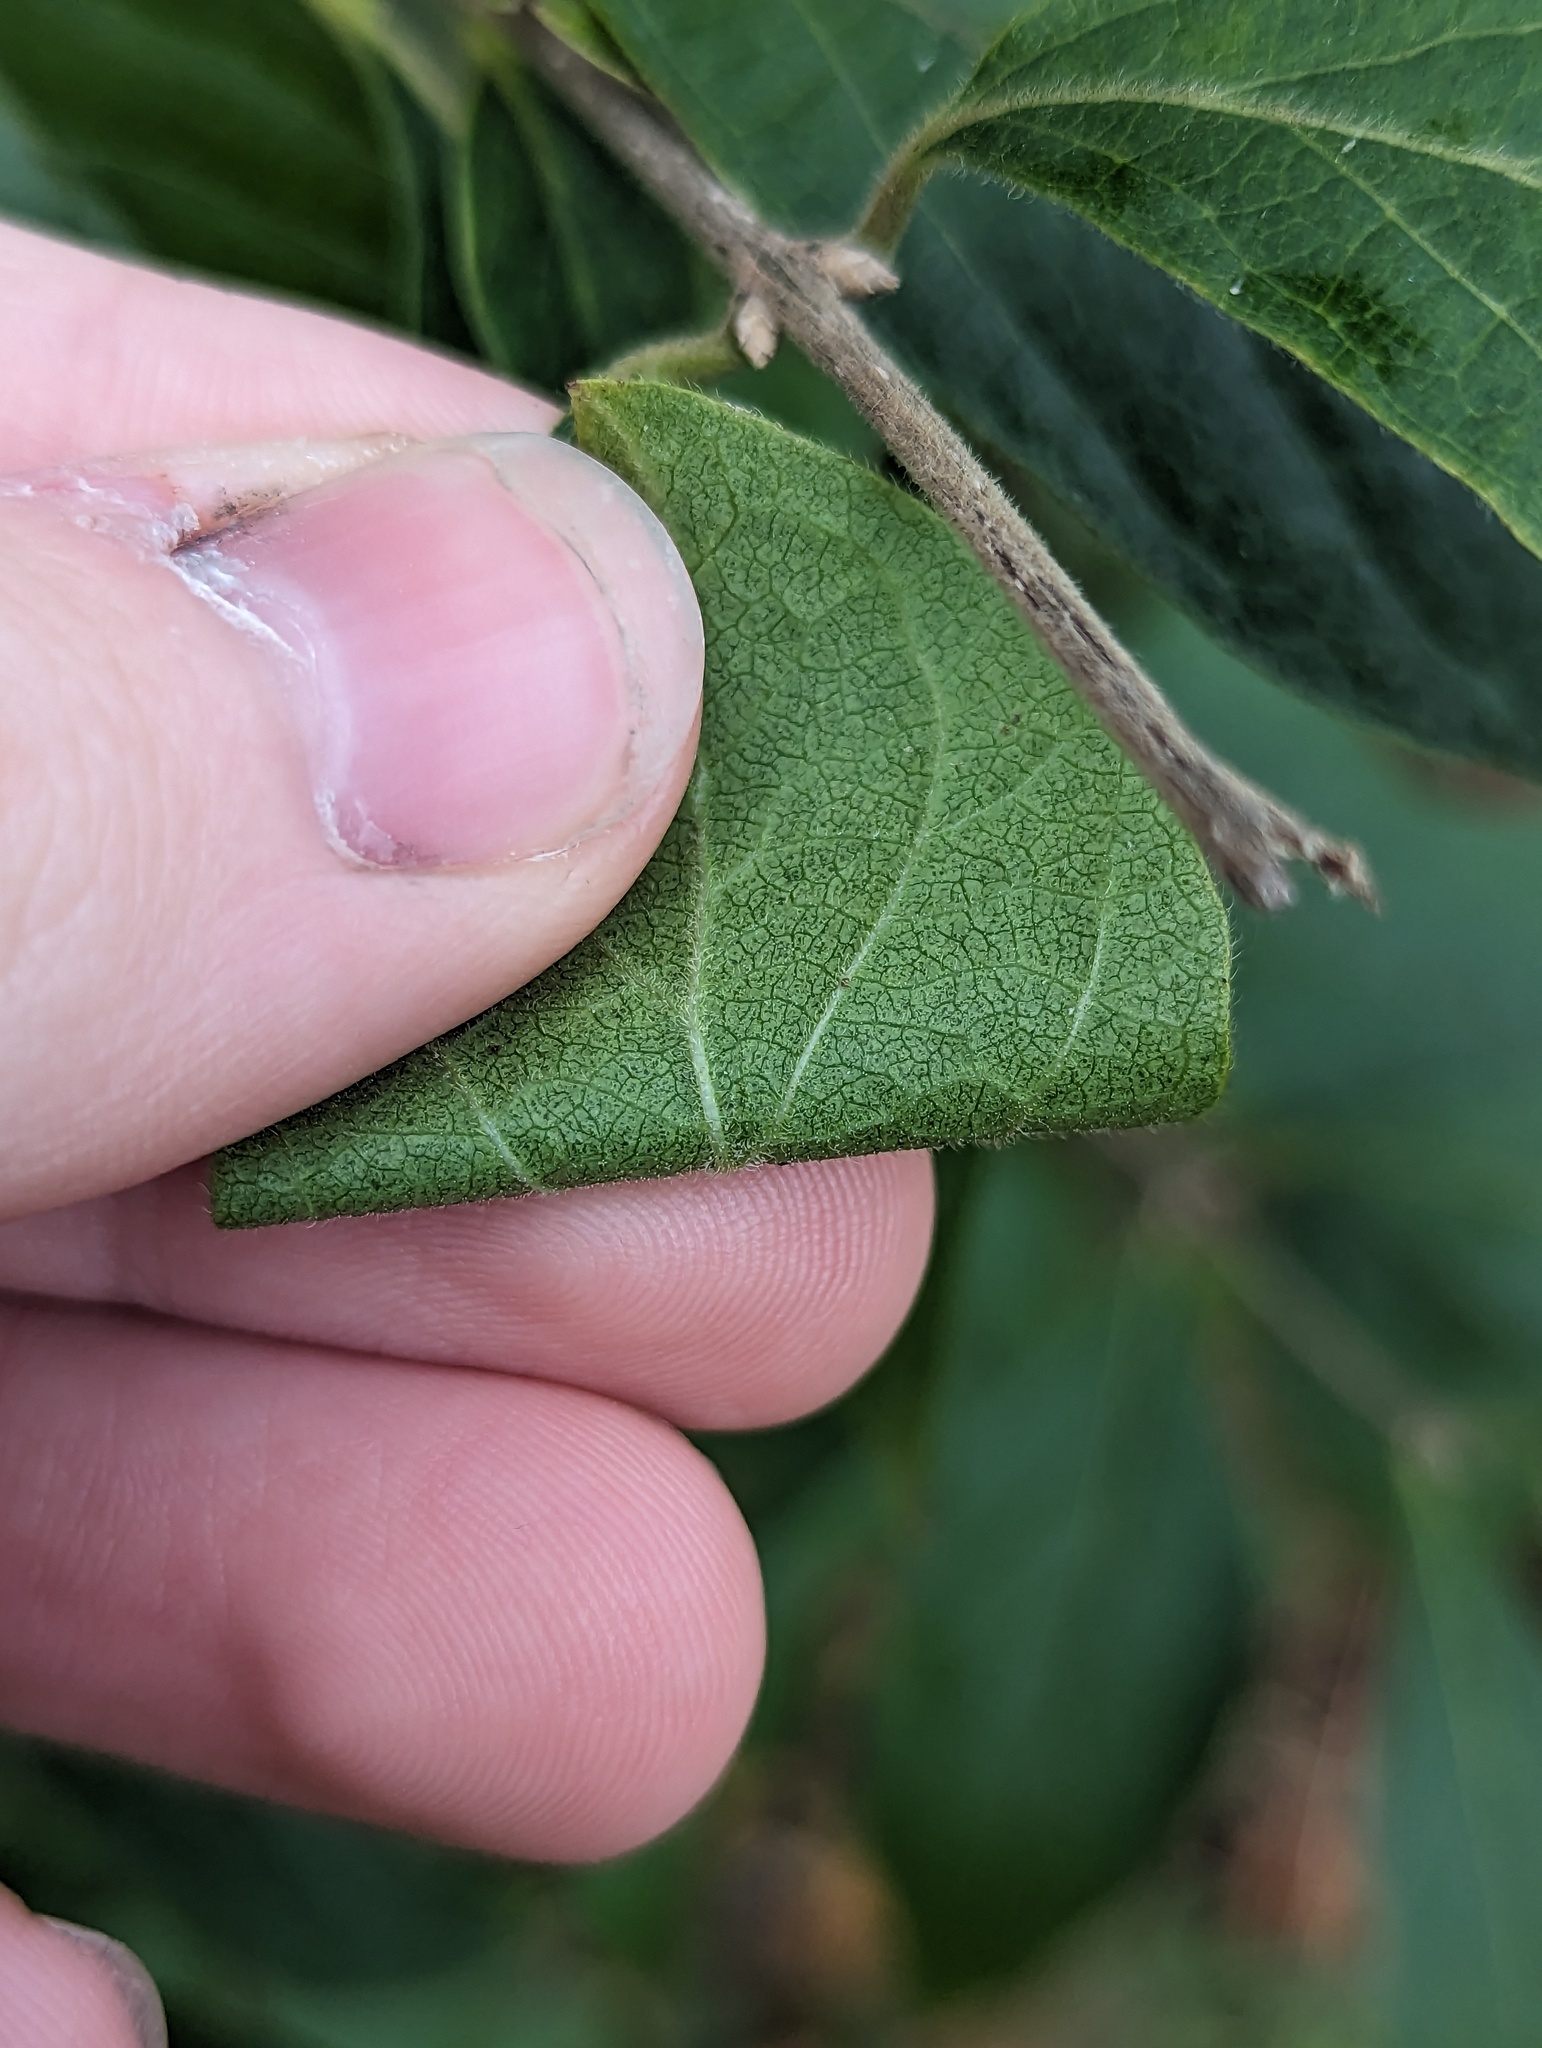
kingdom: Plantae
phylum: Tracheophyta
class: Magnoliopsida
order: Dipsacales
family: Caprifoliaceae
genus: Lonicera
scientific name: Lonicera maackii
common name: Amur honeysuckle
